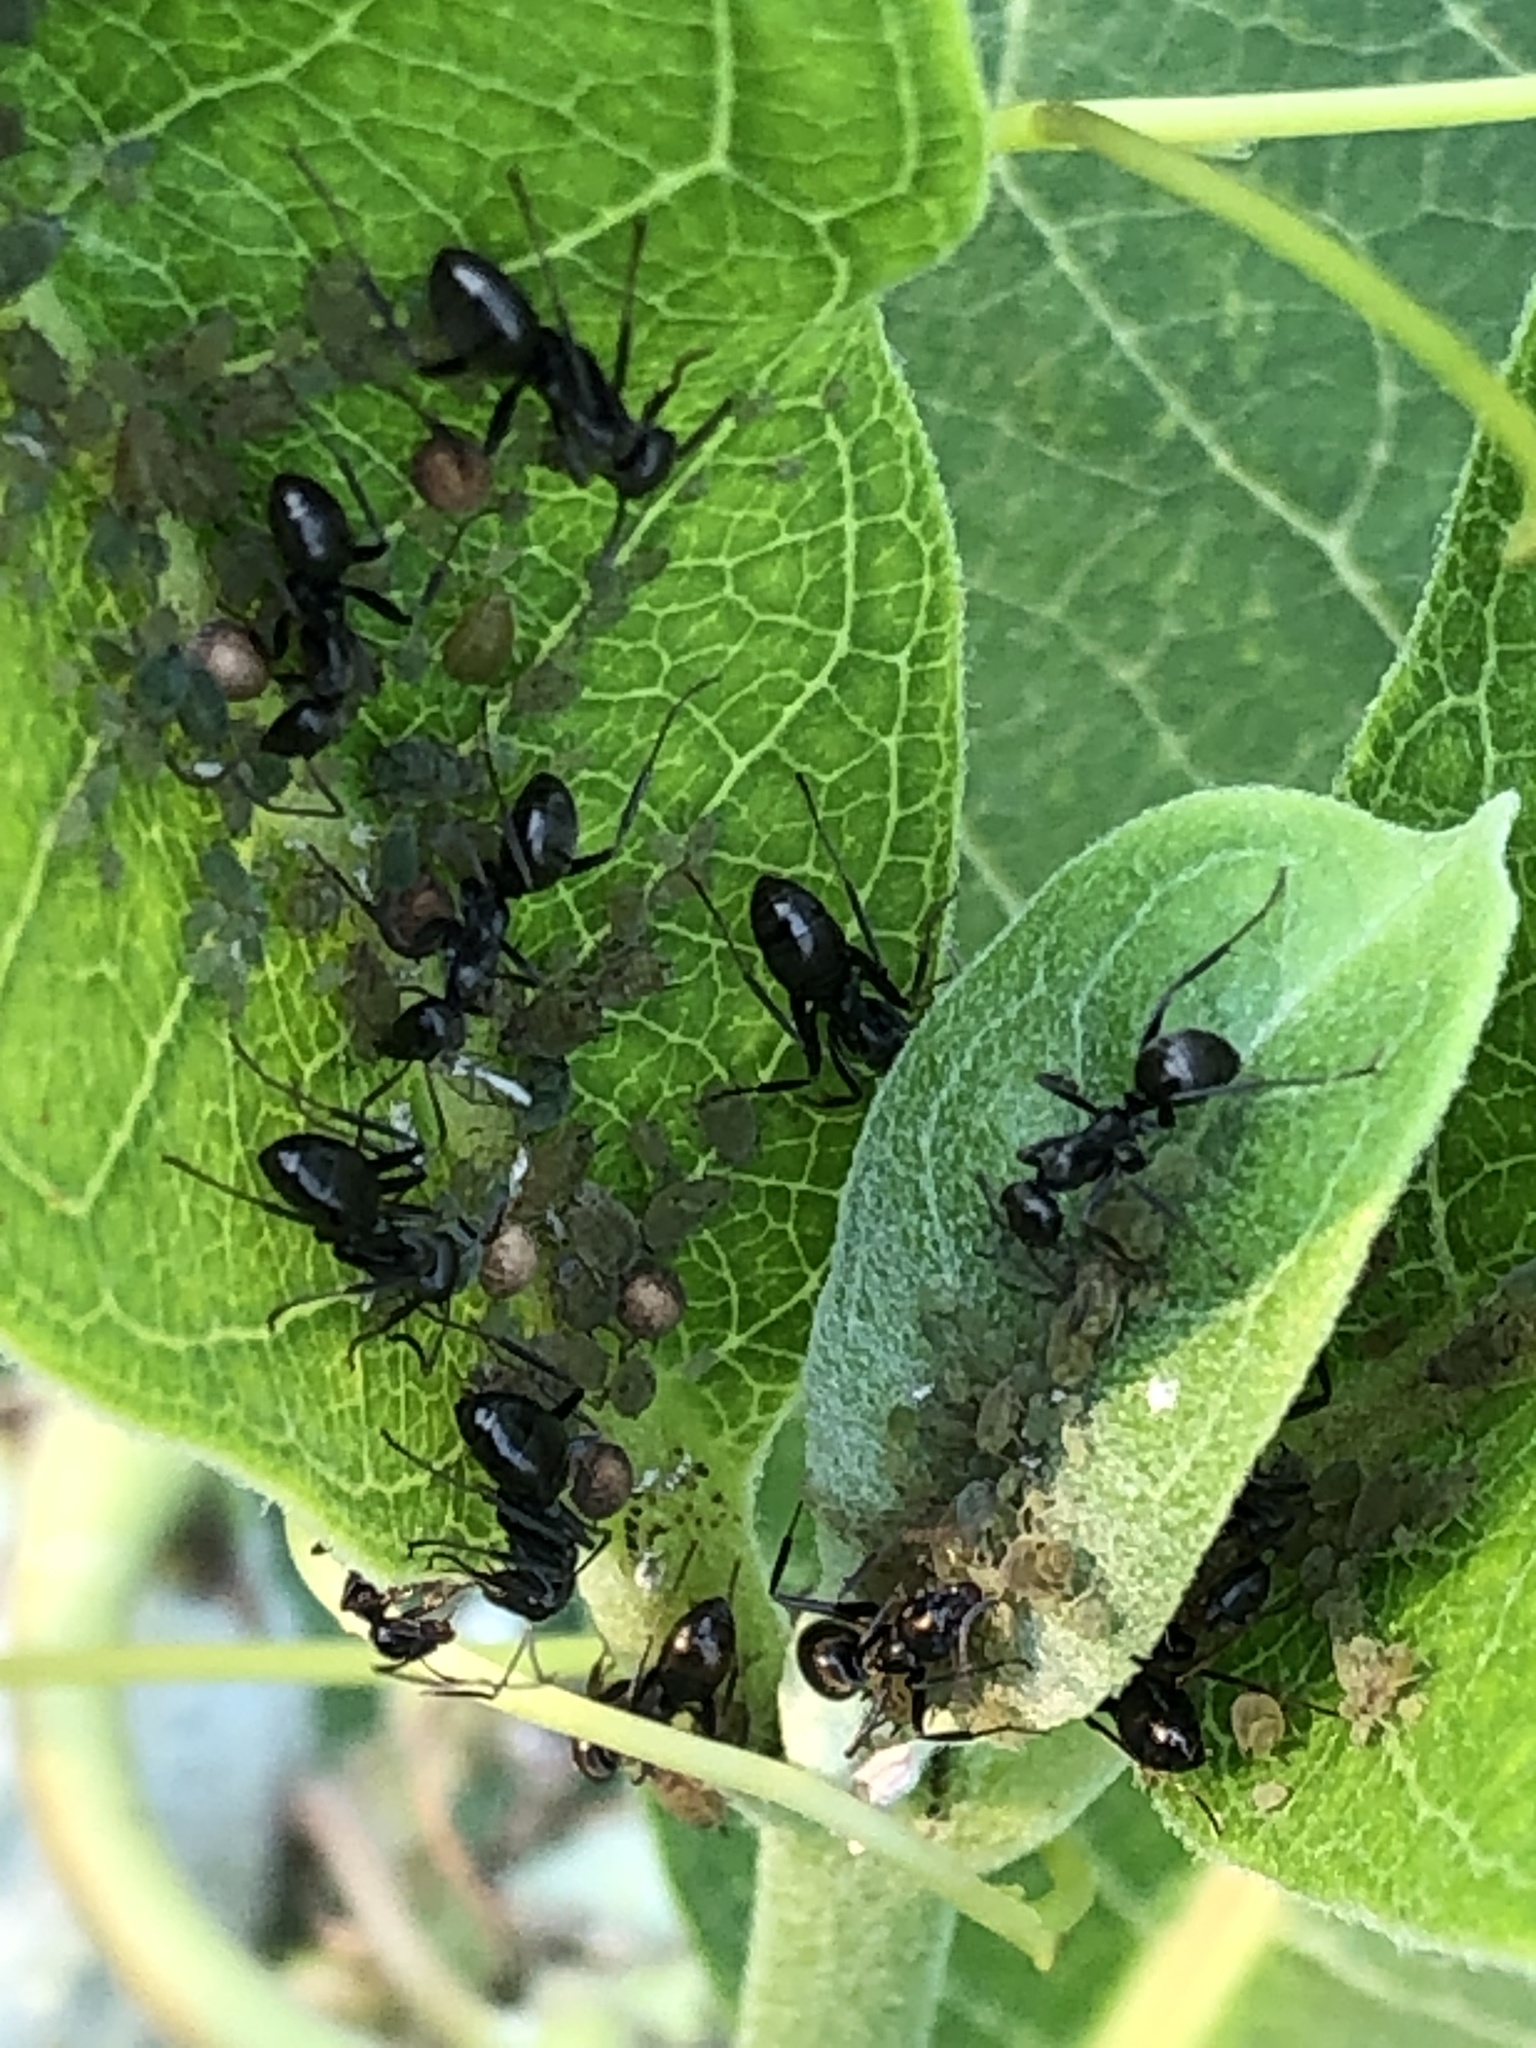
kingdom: Animalia
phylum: Arthropoda
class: Insecta
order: Hymenoptera
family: Formicidae
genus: Formica
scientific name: Formica subsericea
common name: Silky field ant
